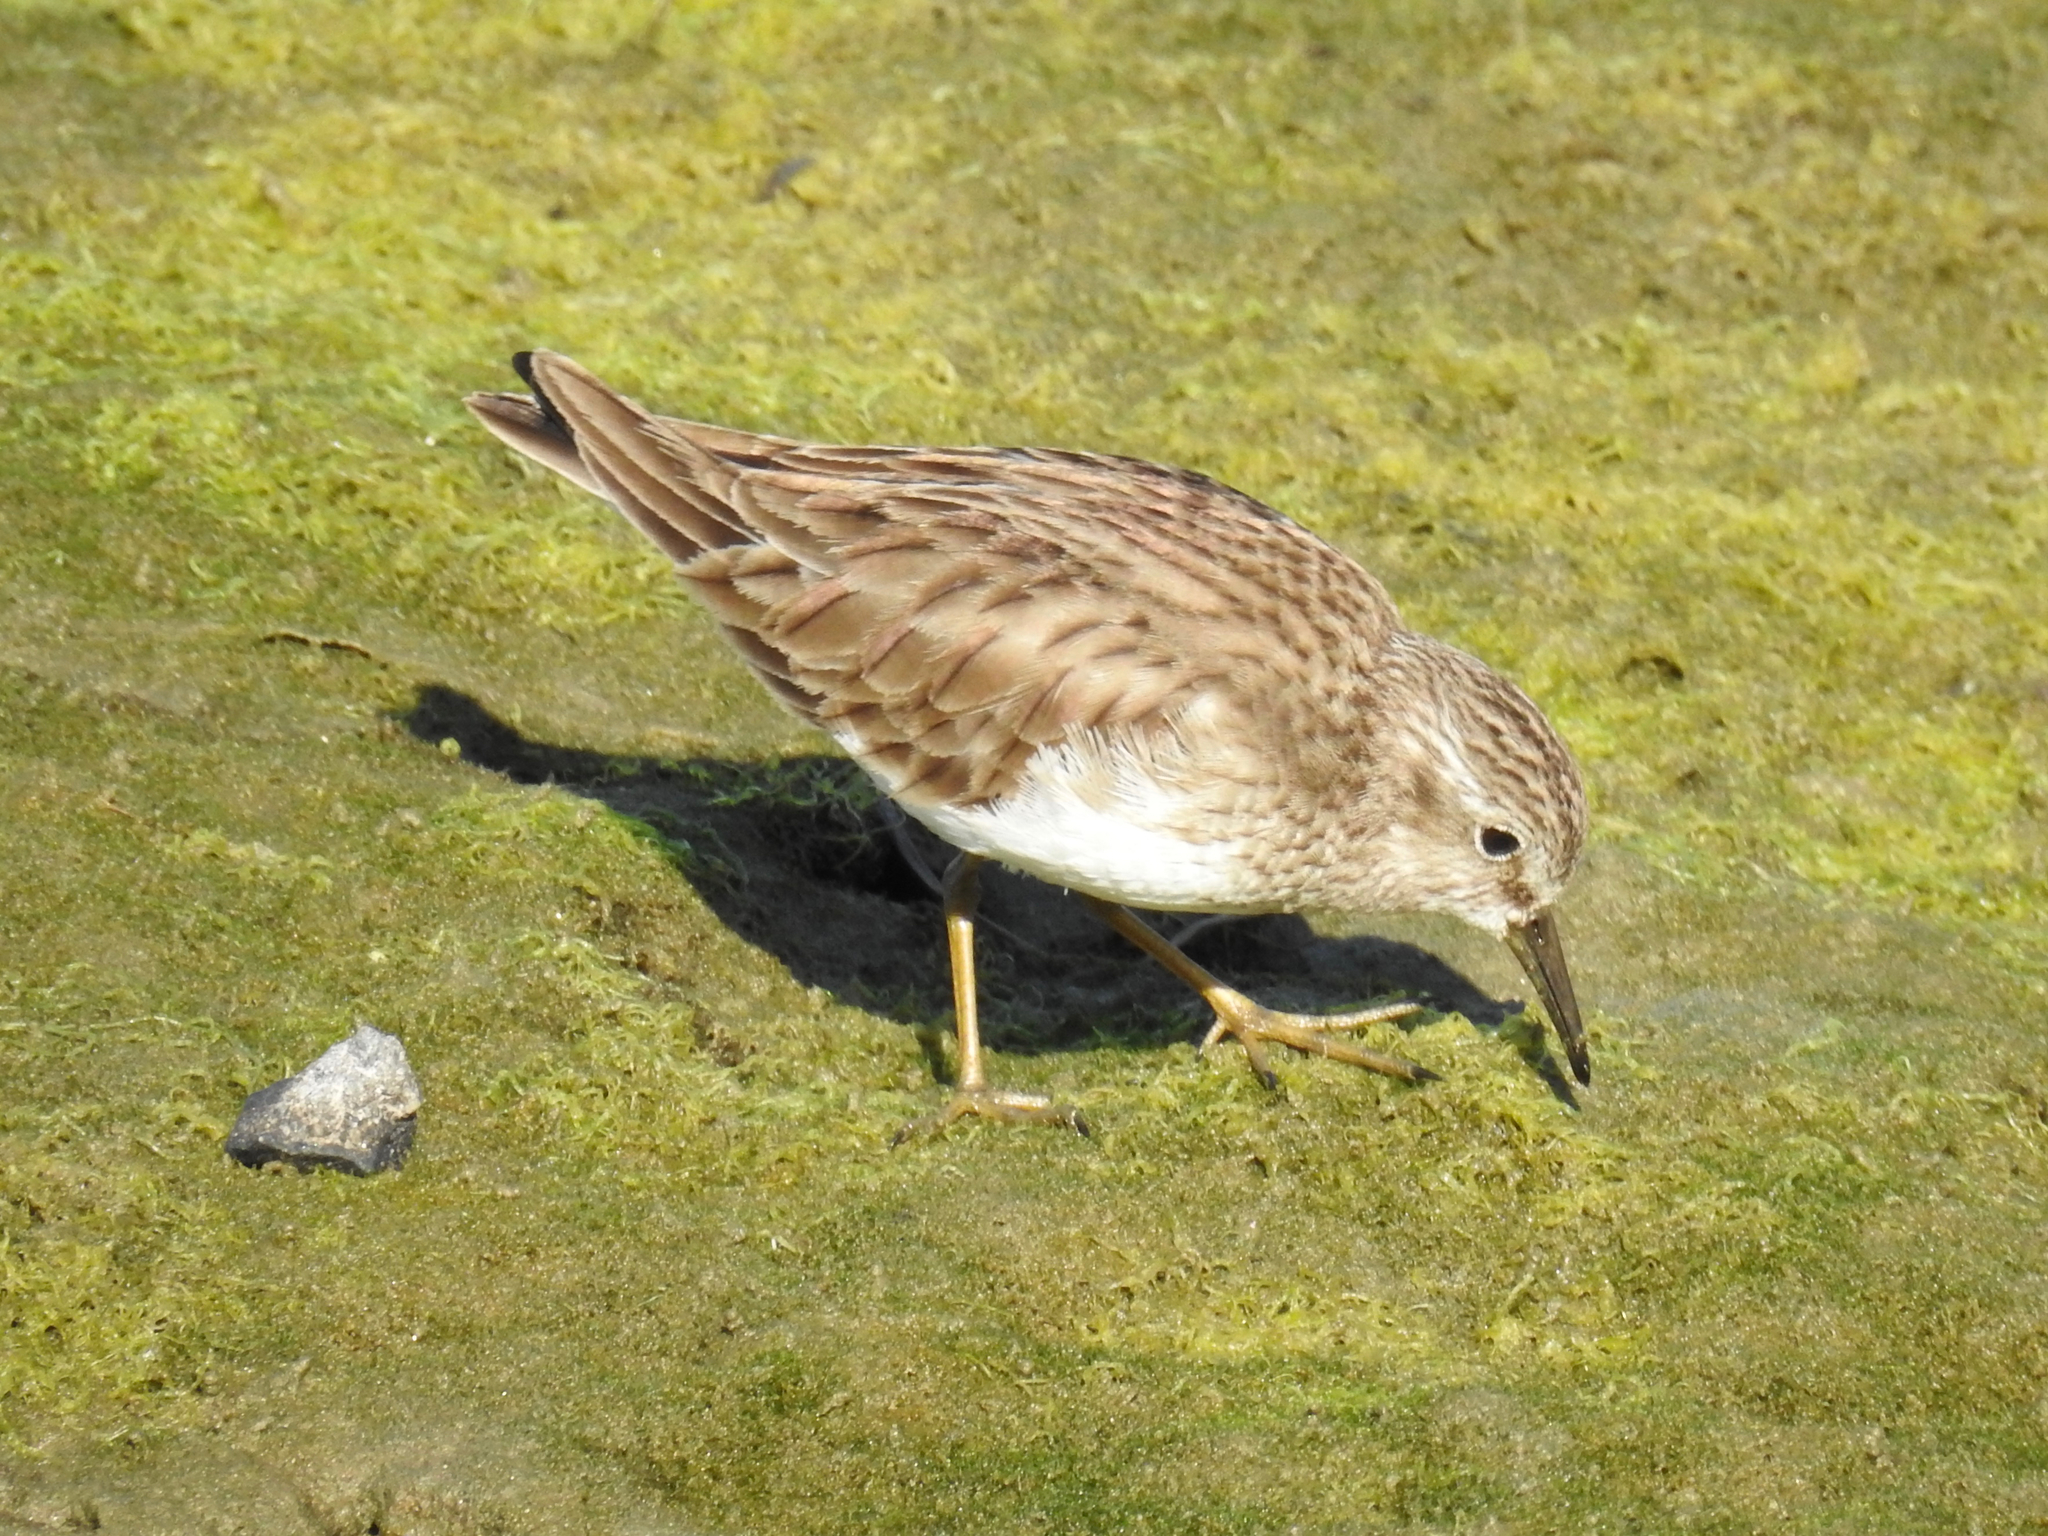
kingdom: Animalia
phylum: Chordata
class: Aves
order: Charadriiformes
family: Scolopacidae
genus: Calidris
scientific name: Calidris minutilla
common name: Least sandpiper
